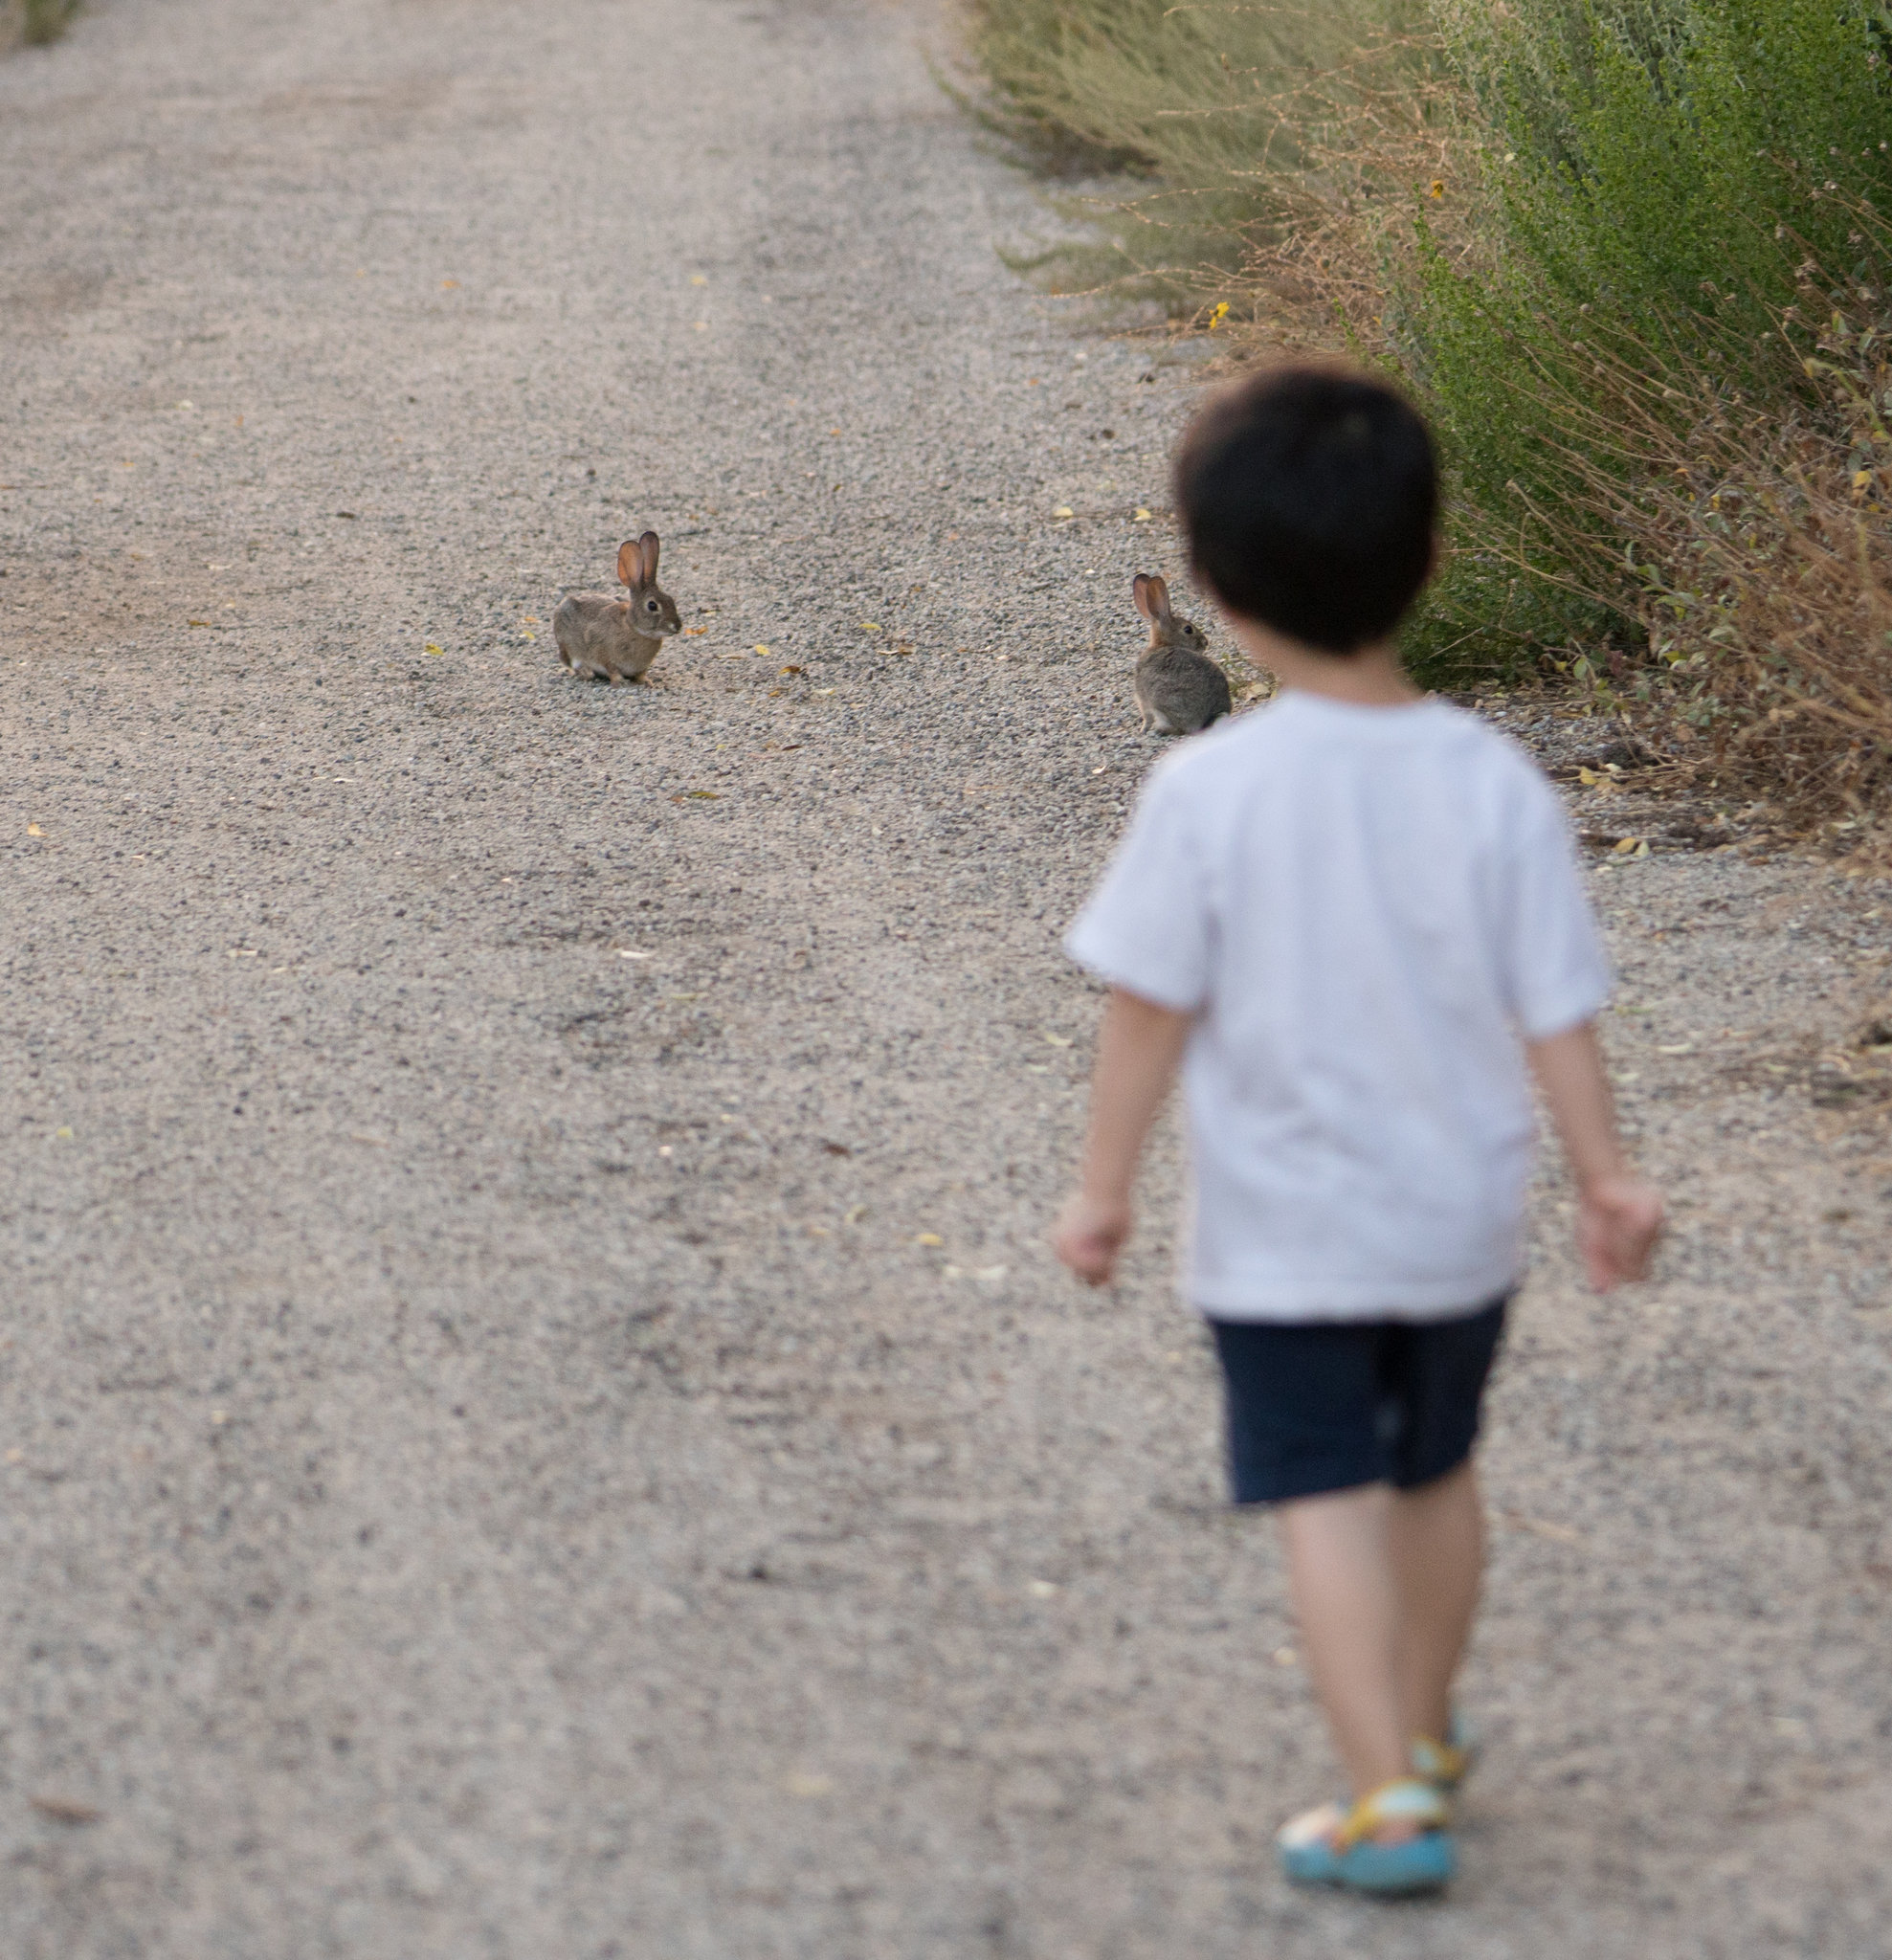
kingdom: Animalia
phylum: Chordata
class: Mammalia
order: Lagomorpha
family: Leporidae
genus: Sylvilagus
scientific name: Sylvilagus audubonii
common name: Desert cottontail
